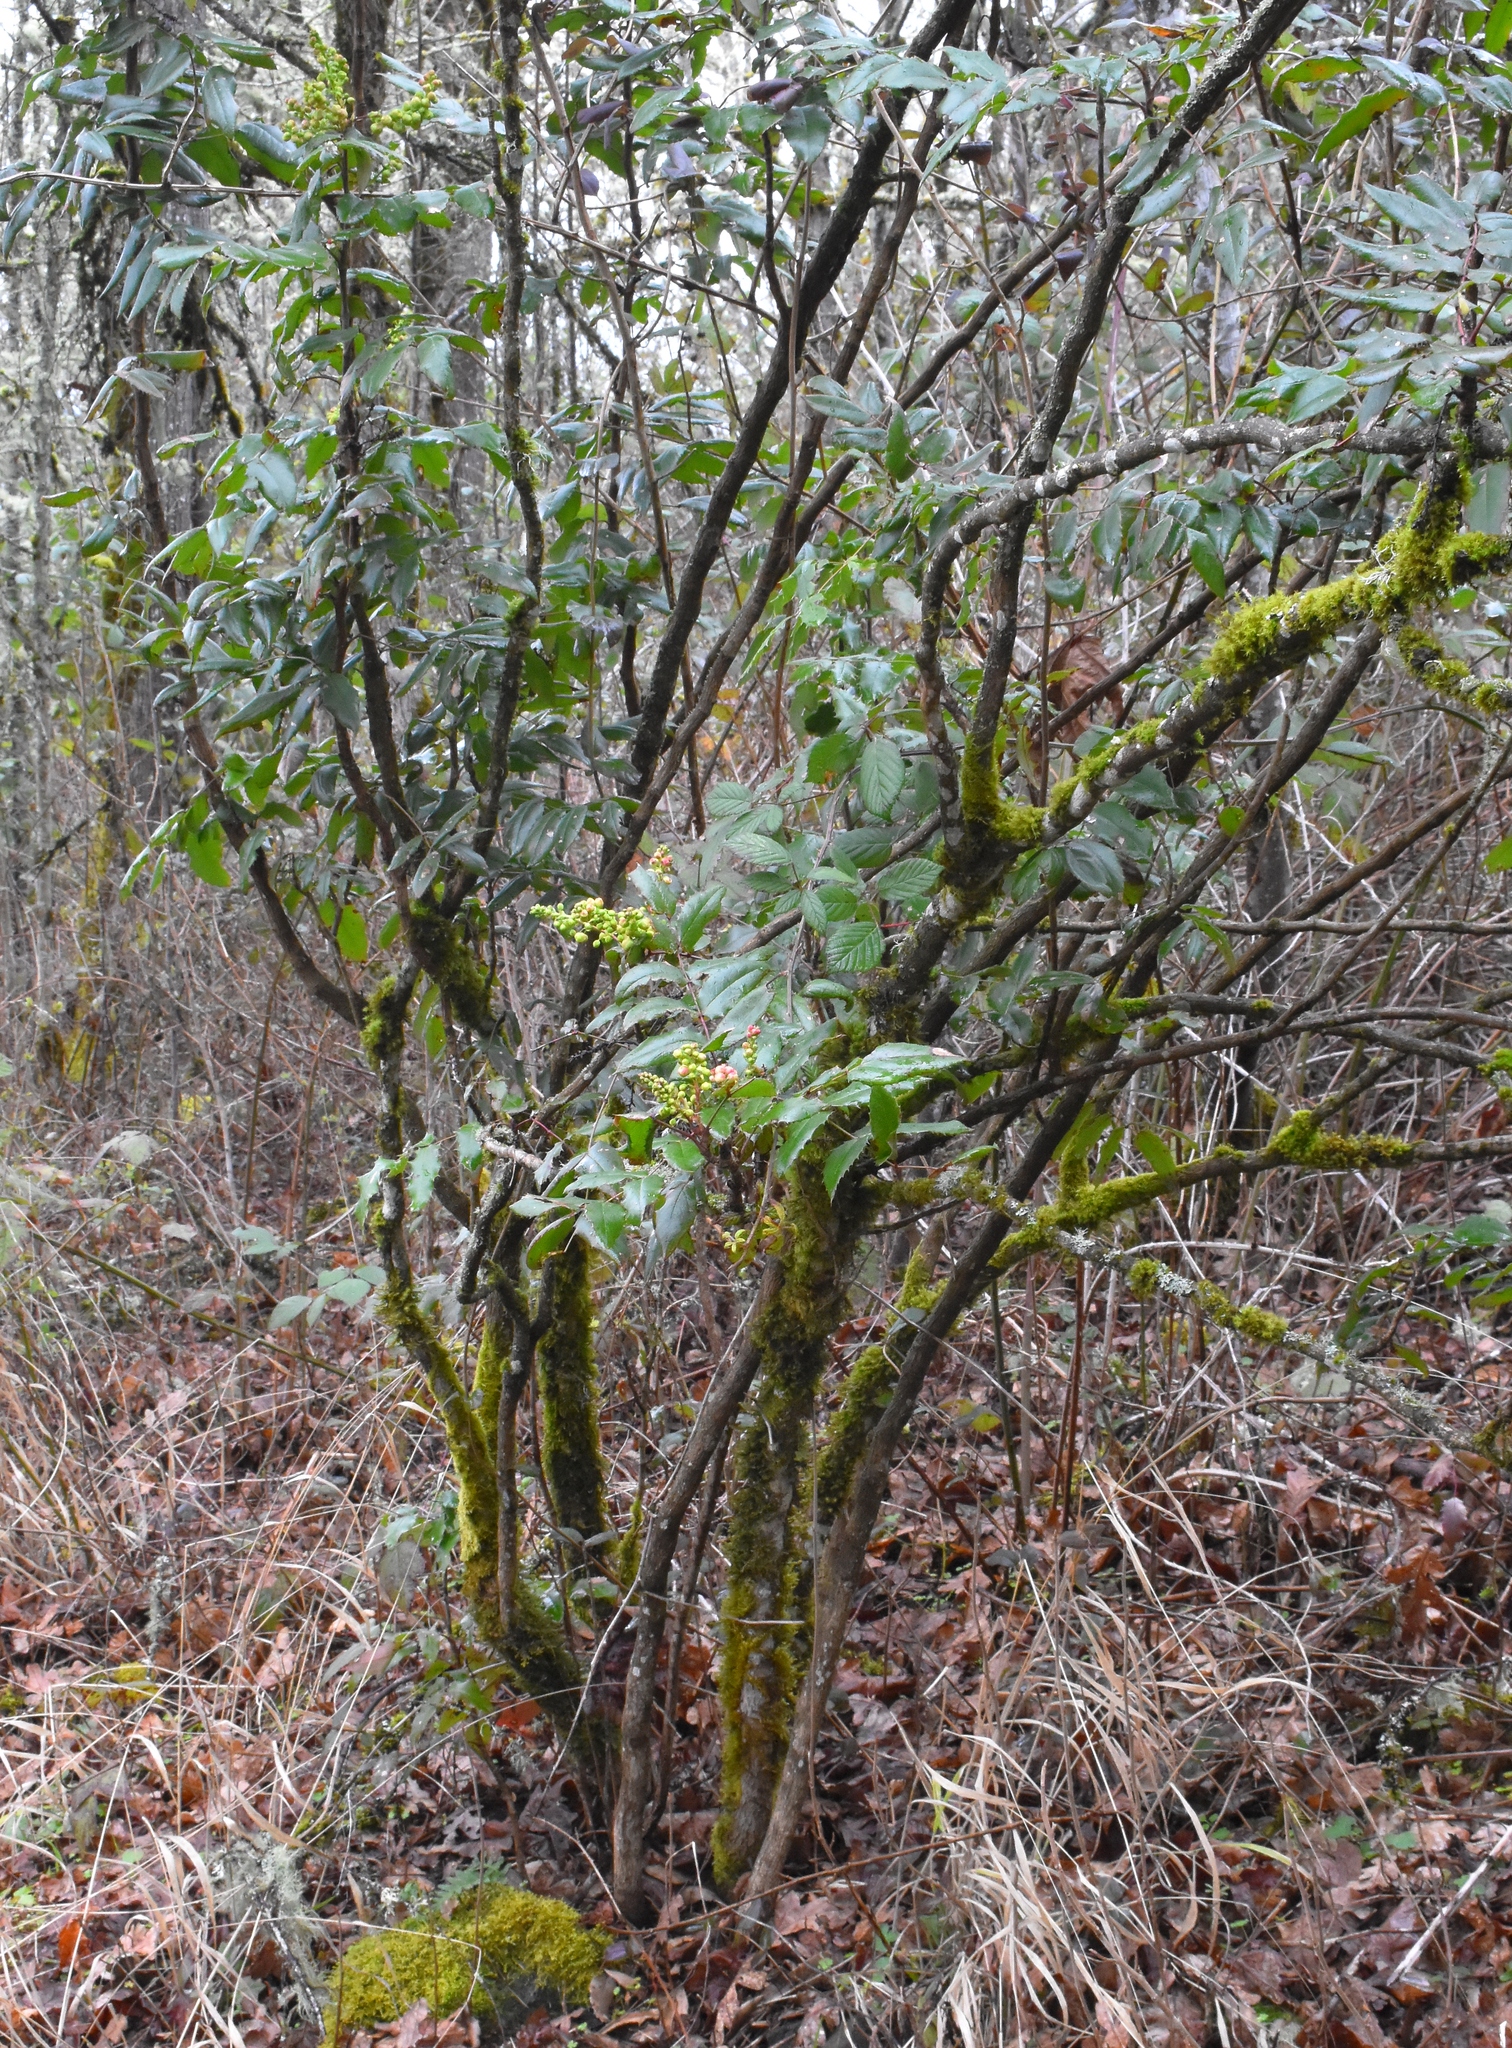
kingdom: Plantae
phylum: Tracheophyta
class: Magnoliopsida
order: Ranunculales
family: Berberidaceae
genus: Mahonia
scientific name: Mahonia aquifolium
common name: Oregon-grape
